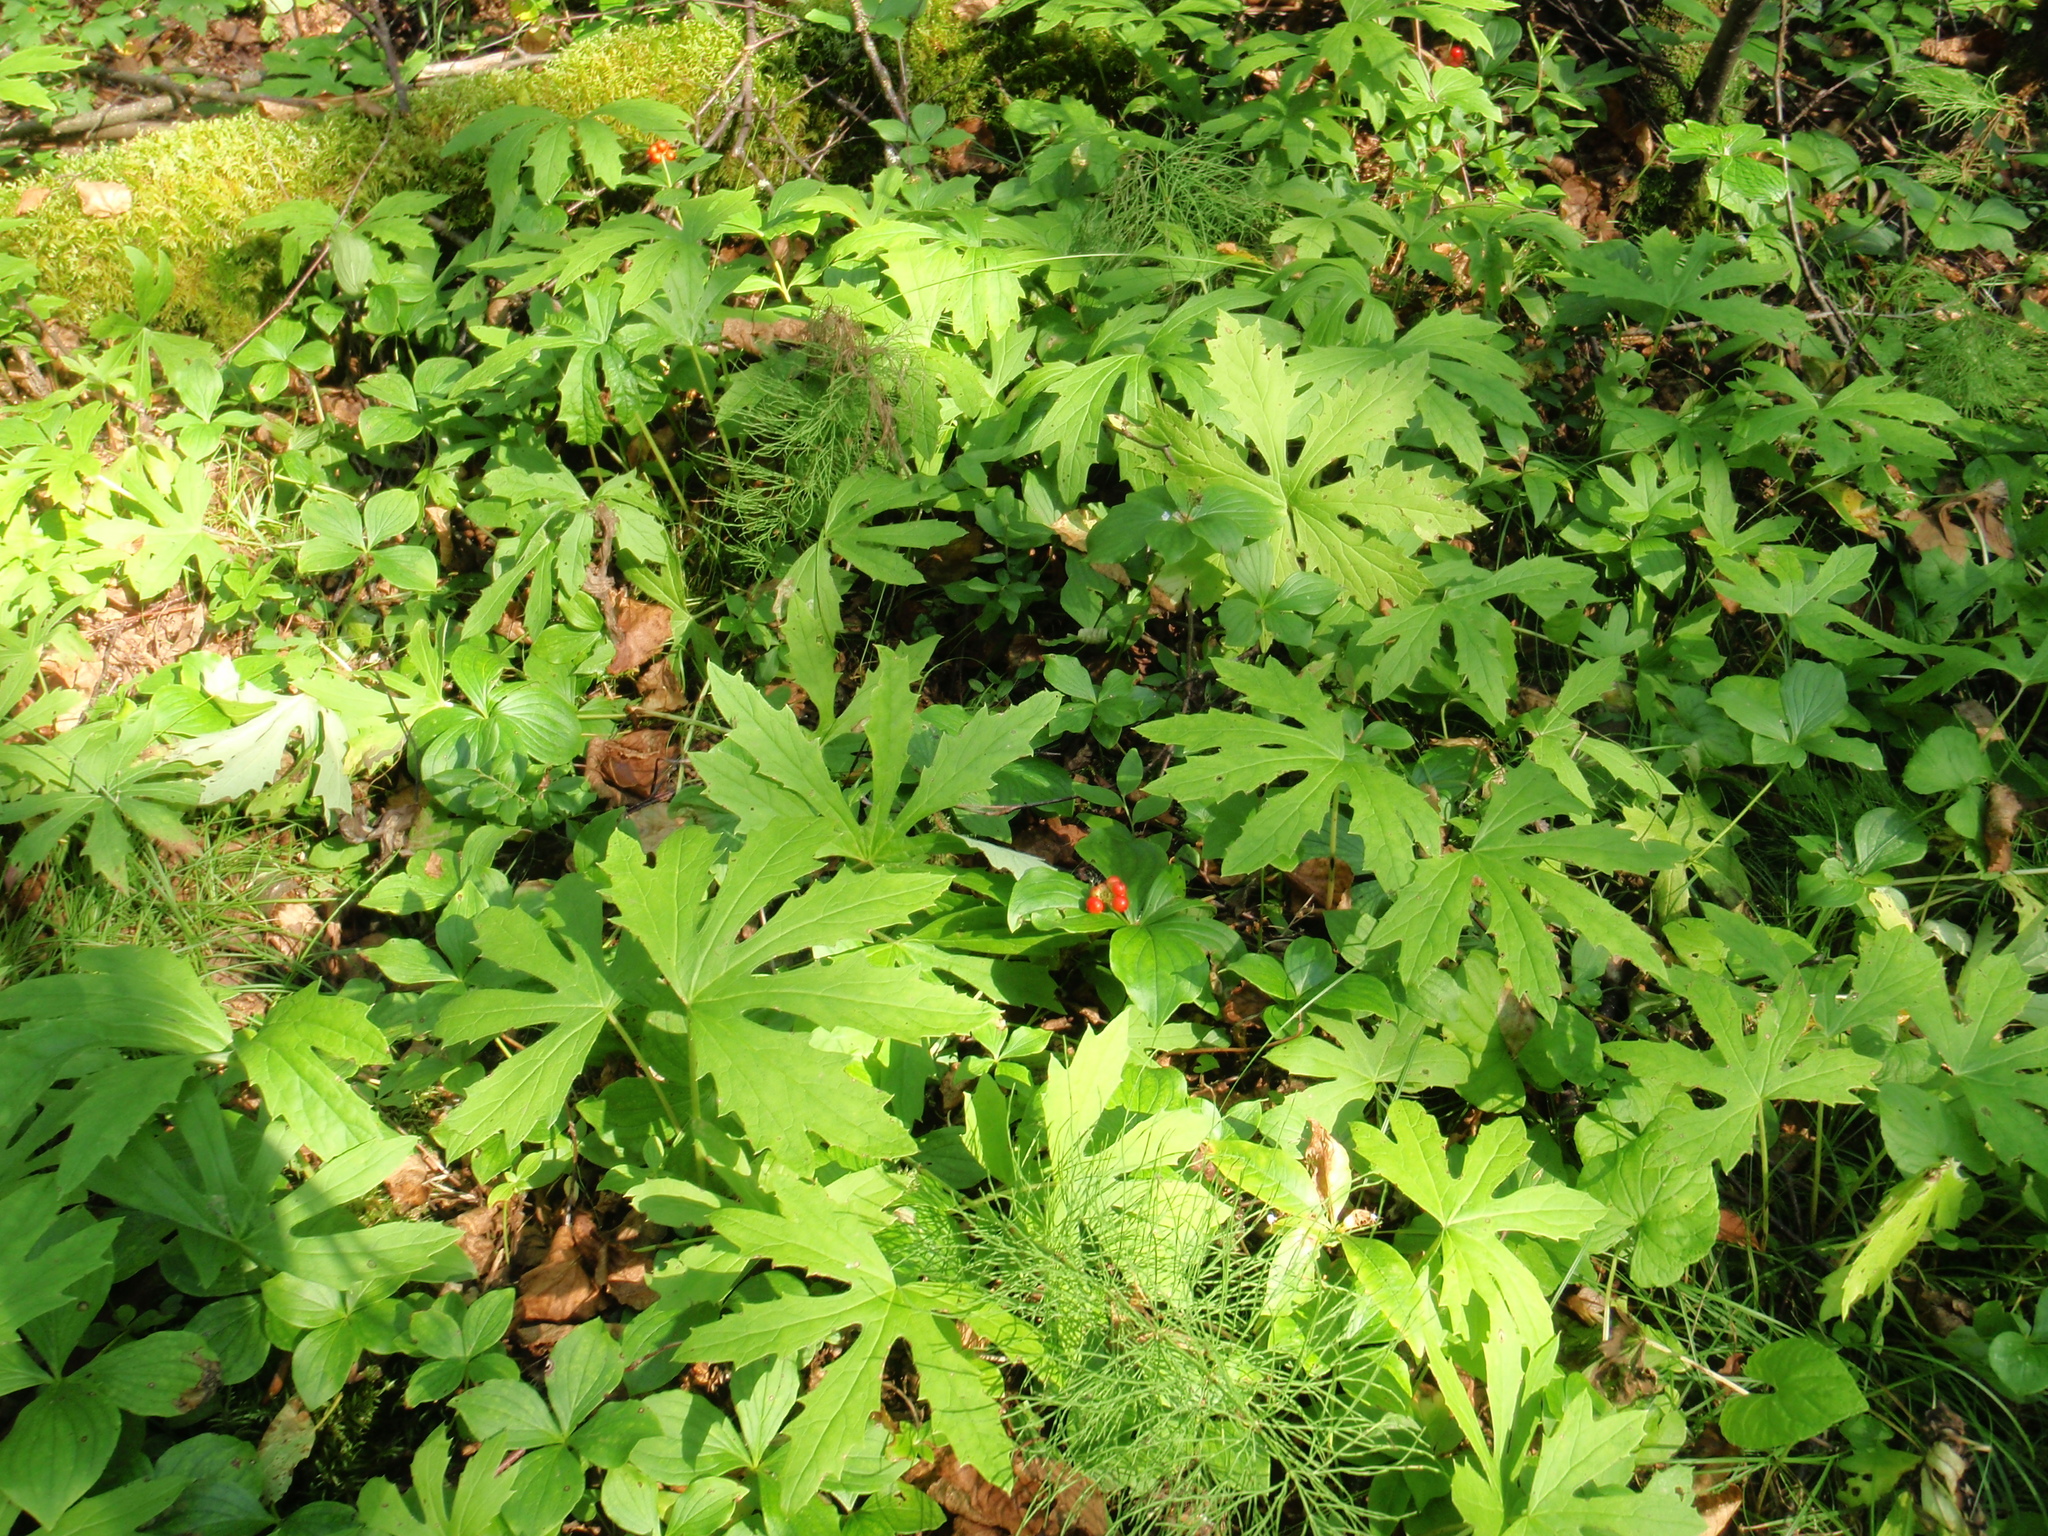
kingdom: Plantae
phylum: Tracheophyta
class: Magnoliopsida
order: Asterales
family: Asteraceae
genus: Petasites
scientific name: Petasites frigidus
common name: Arctic butterbur
